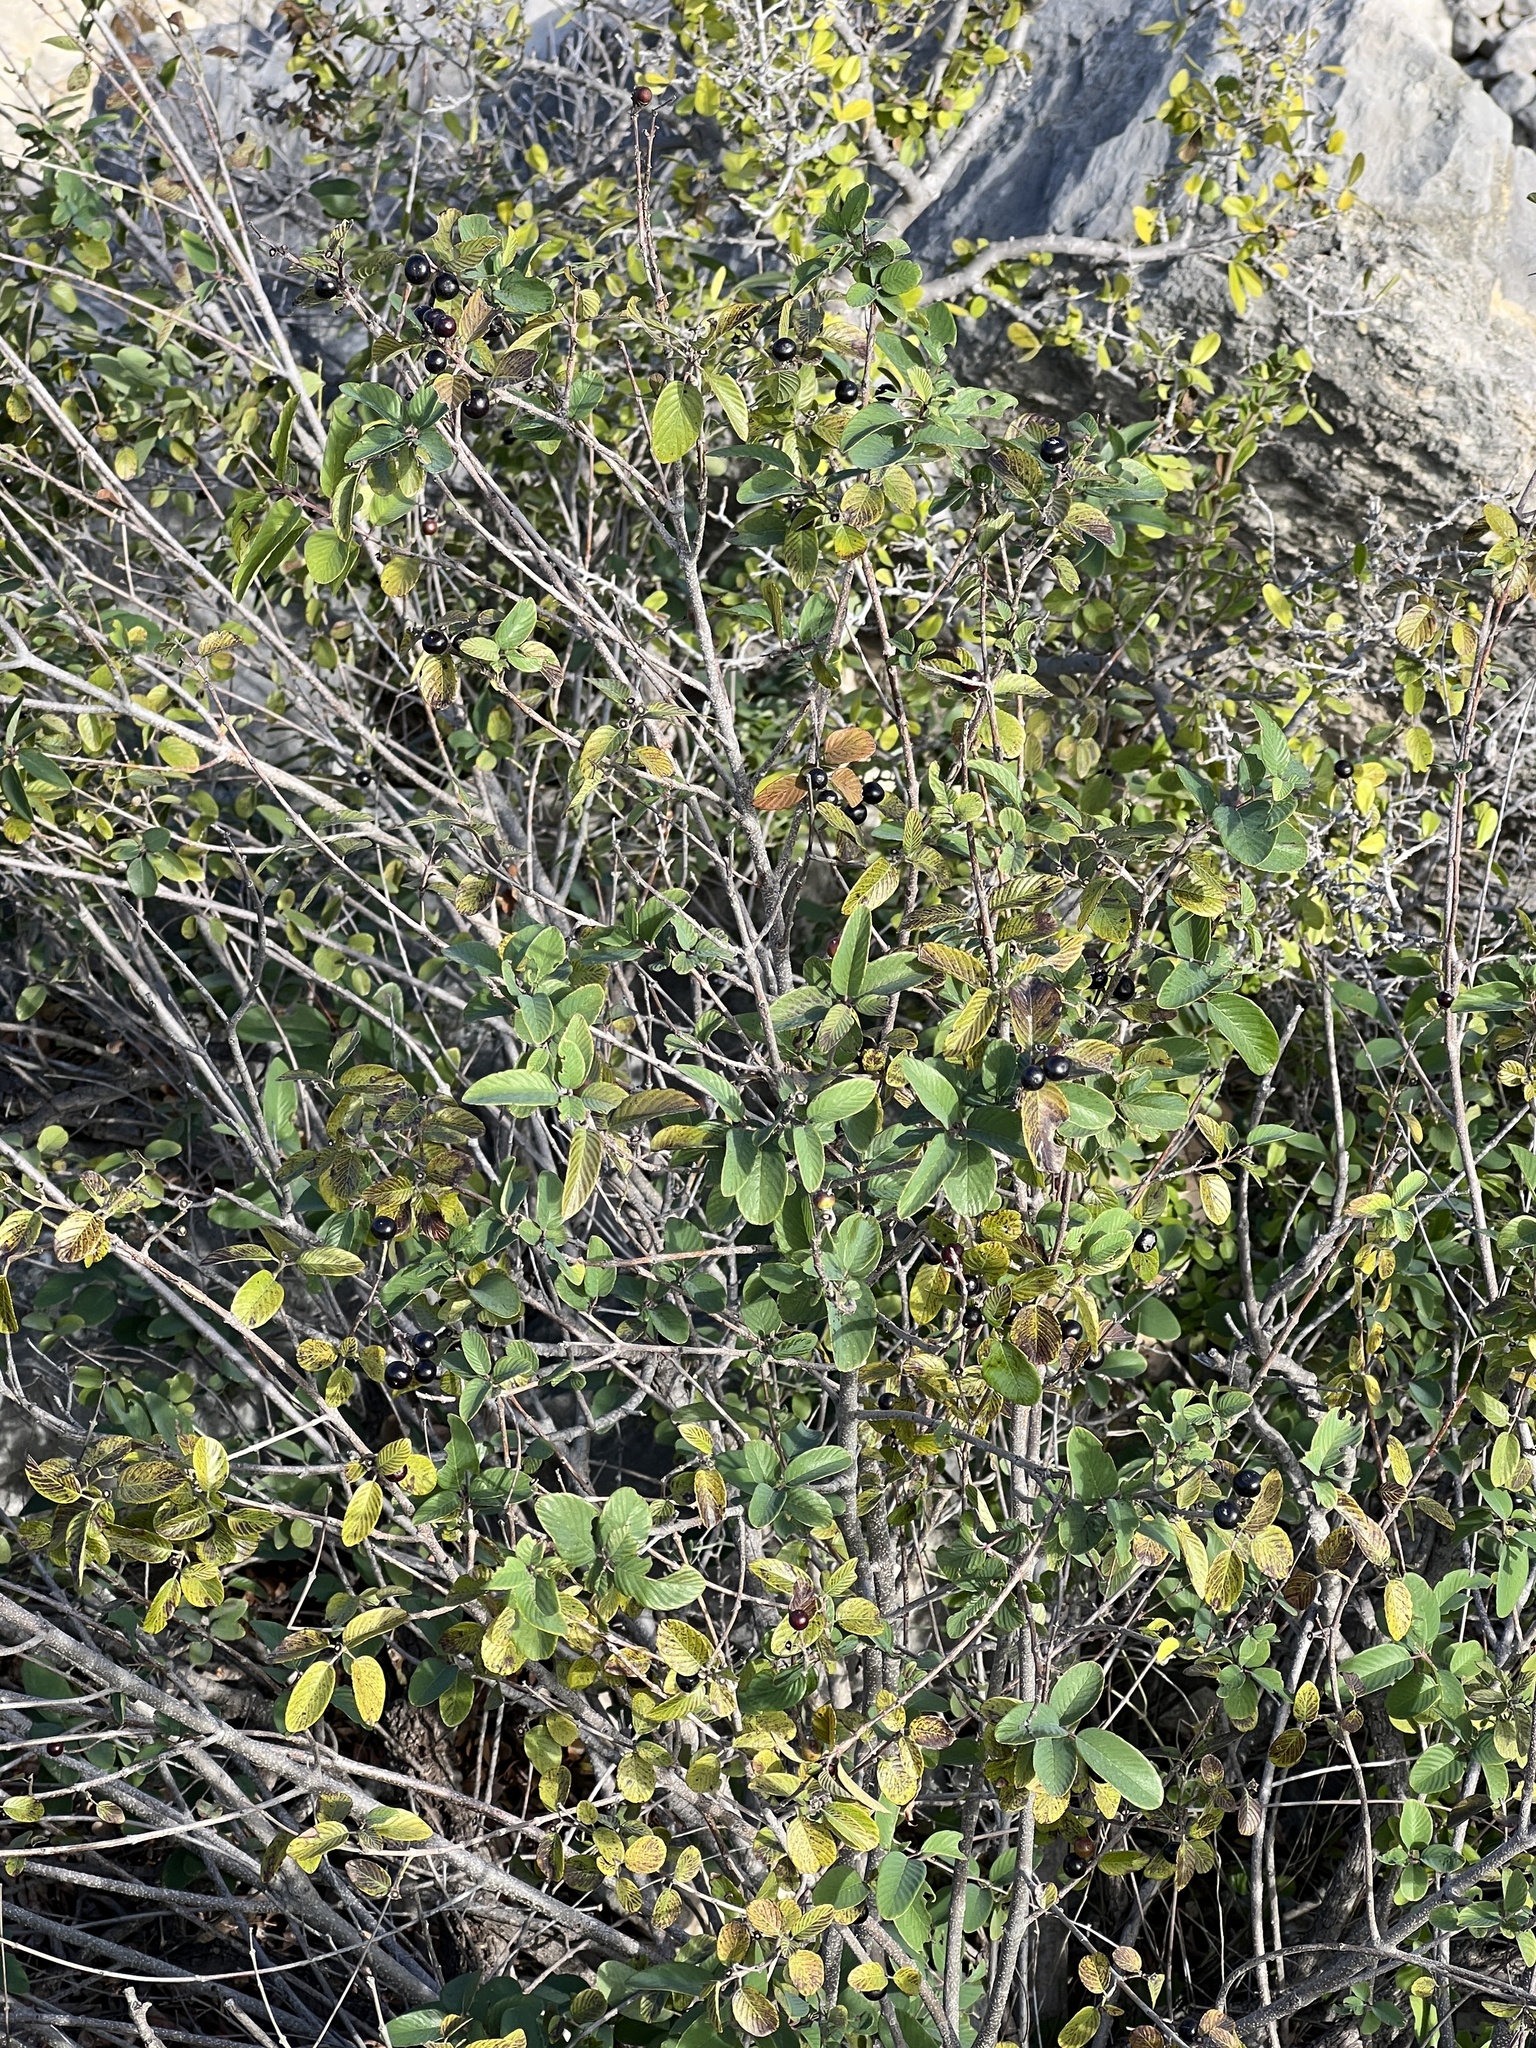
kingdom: Plantae
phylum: Tracheophyta
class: Magnoliopsida
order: Rosales
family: Rhamnaceae
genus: Karwinskia
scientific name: Karwinskia humboldtiana
